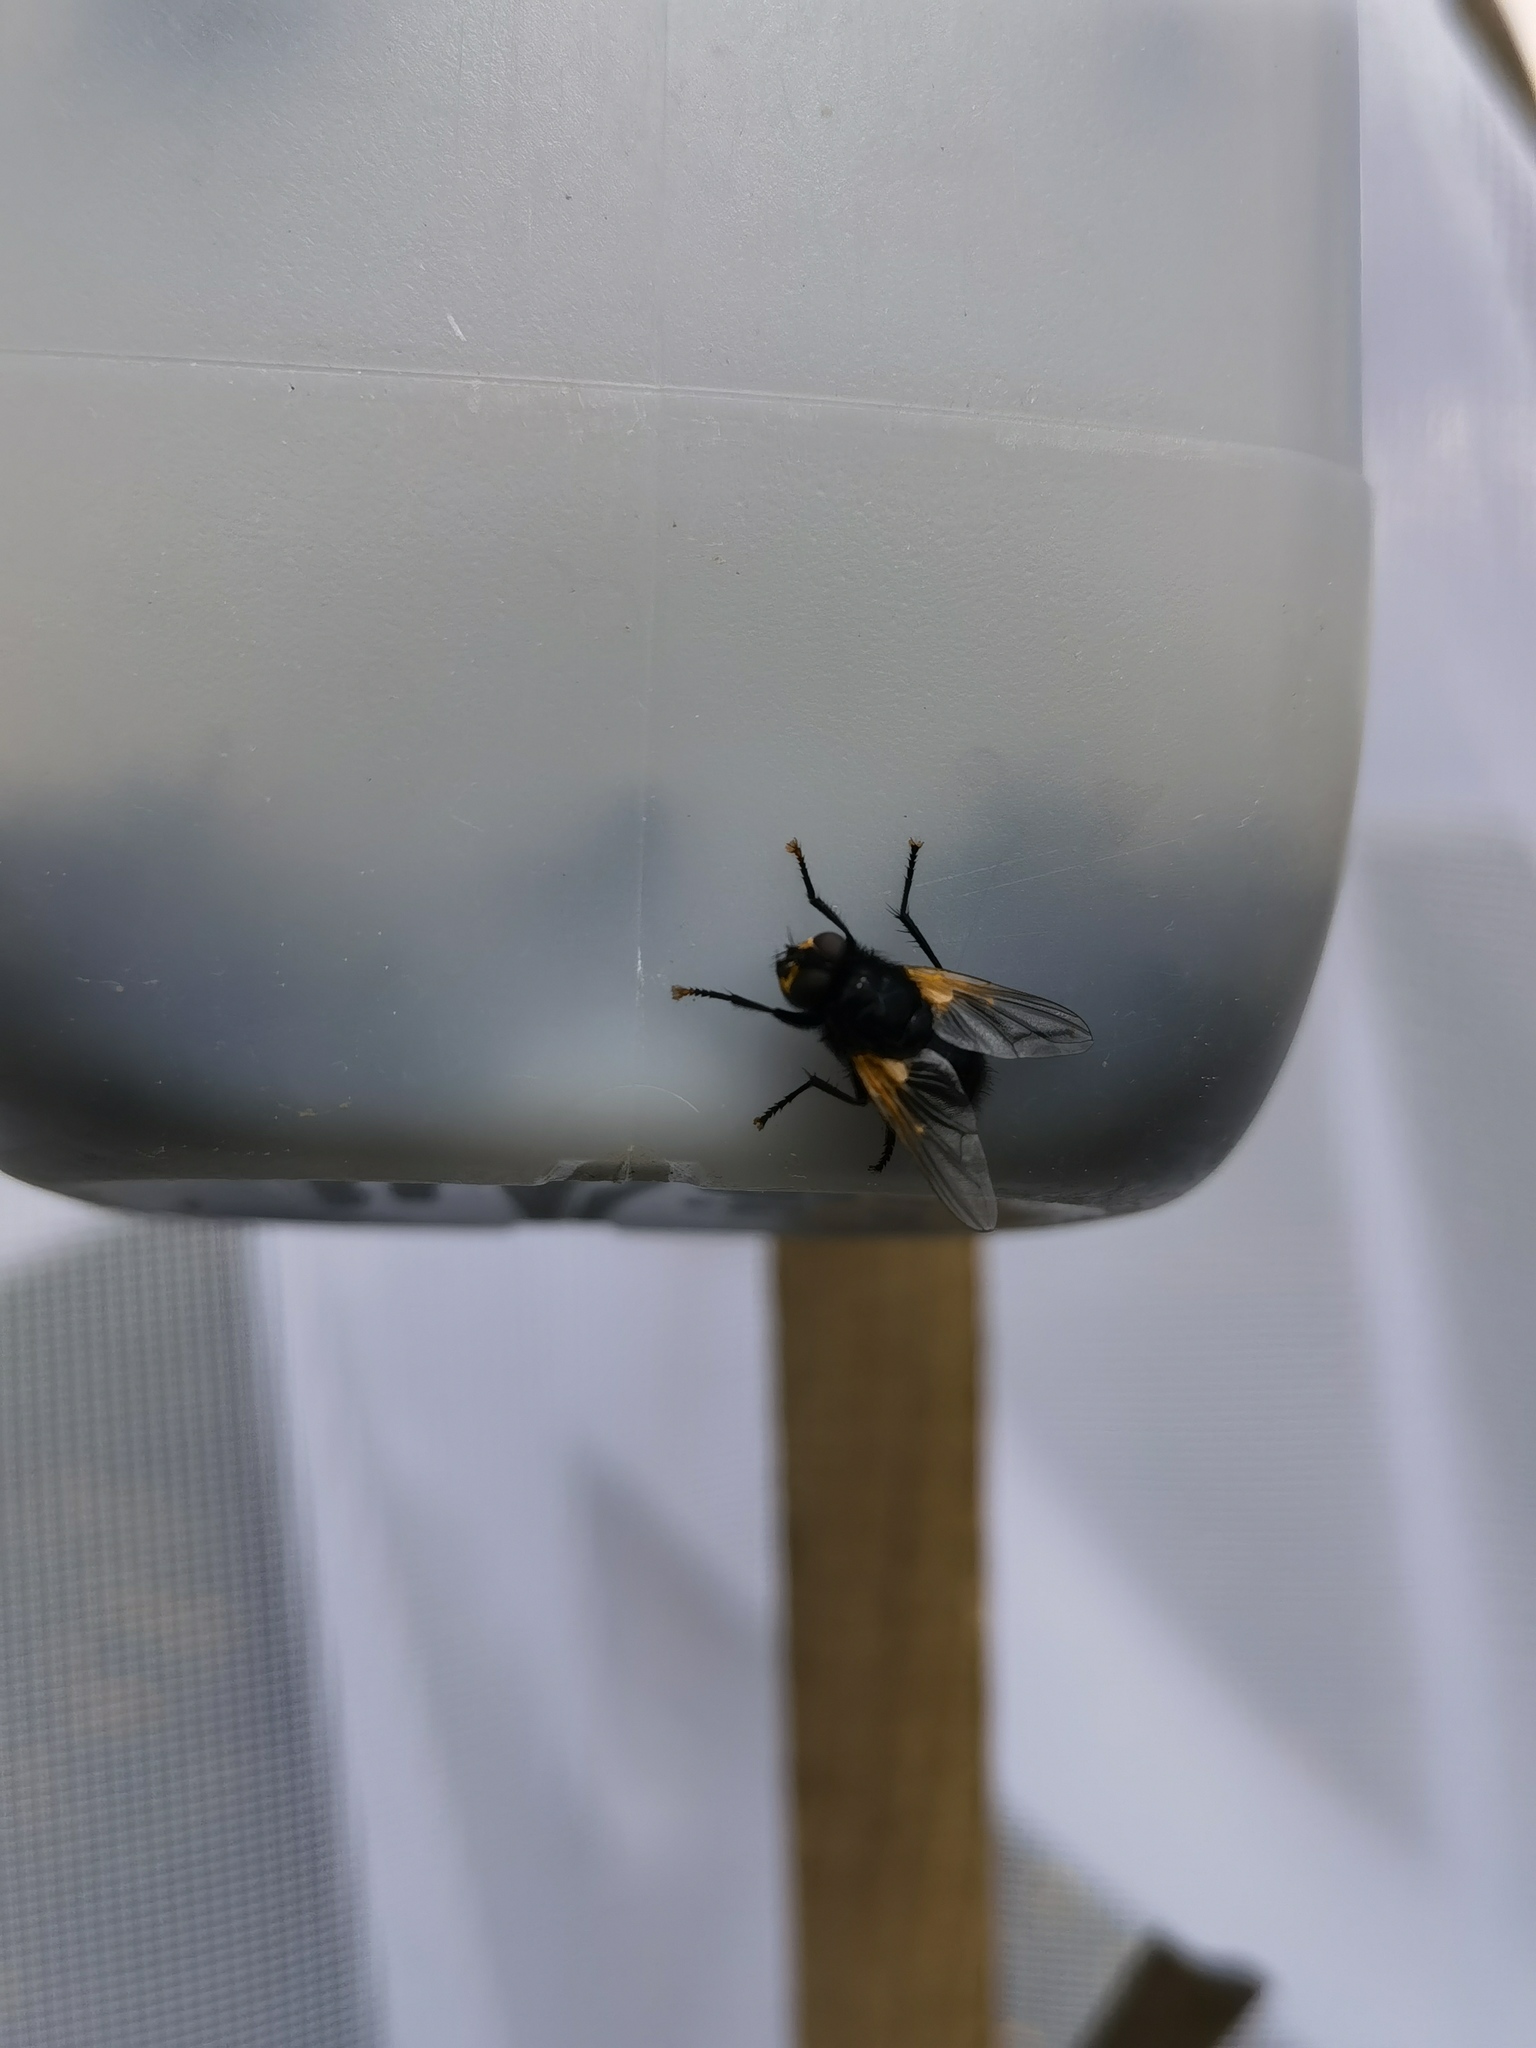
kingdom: Animalia
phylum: Arthropoda
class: Insecta
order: Diptera
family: Muscidae
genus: Mesembrina
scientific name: Mesembrina meridiana
